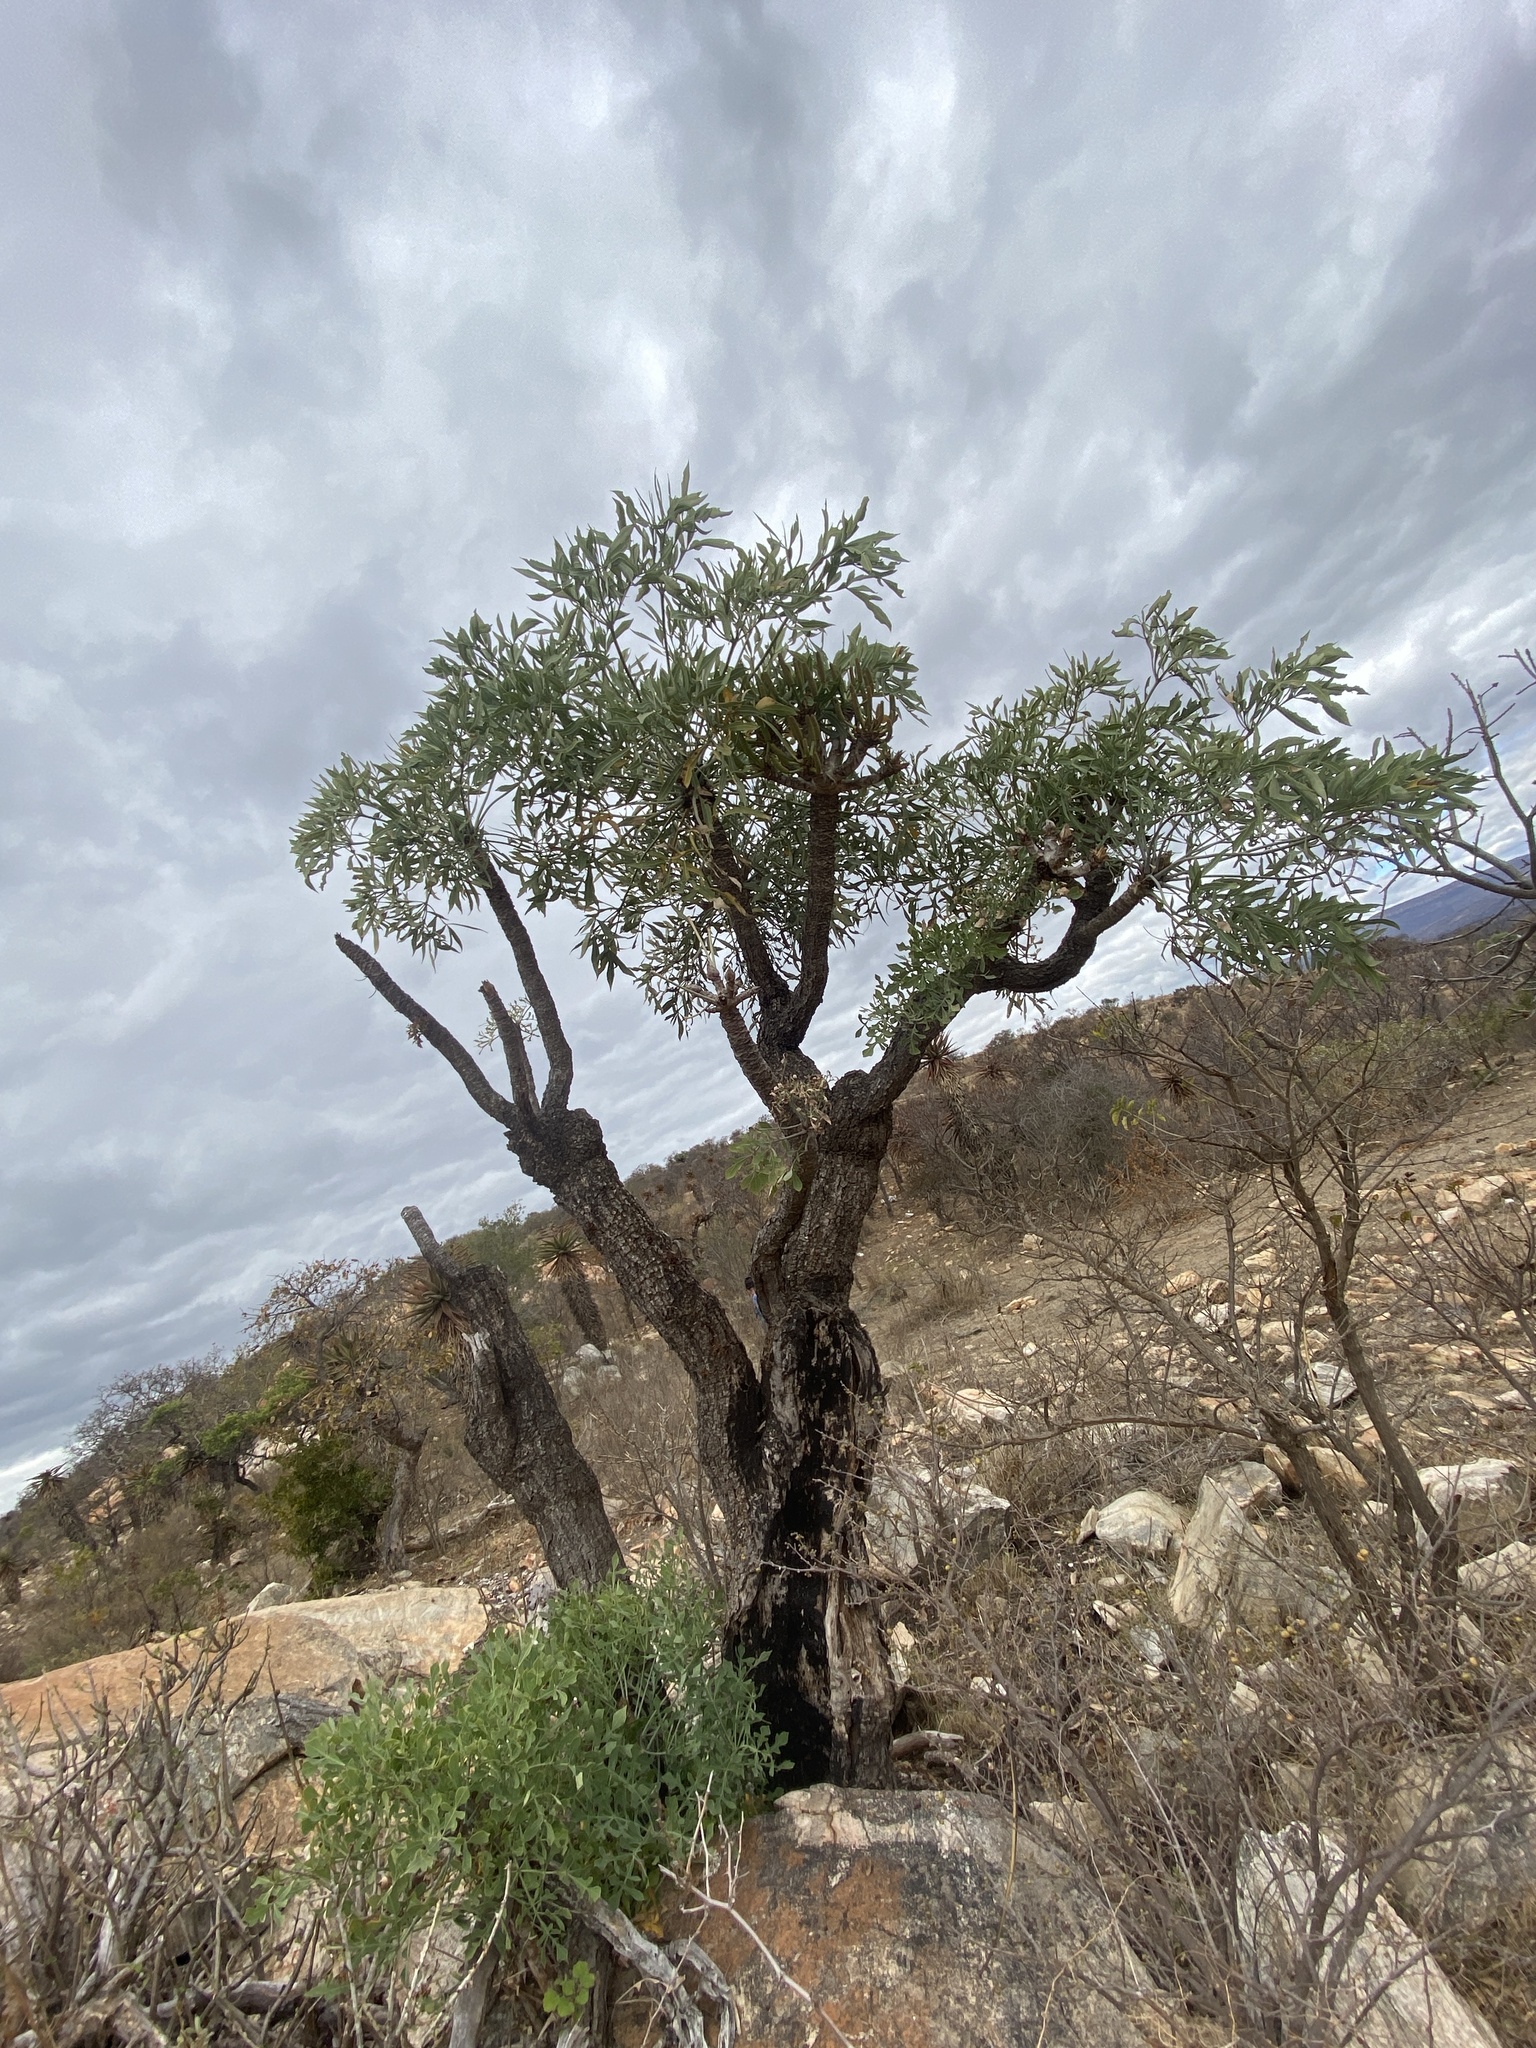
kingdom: Plantae
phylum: Tracheophyta
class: Magnoliopsida
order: Apiales
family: Araliaceae
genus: Cussonia
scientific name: Cussonia transvaalensis
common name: Grey cabbage-tree
